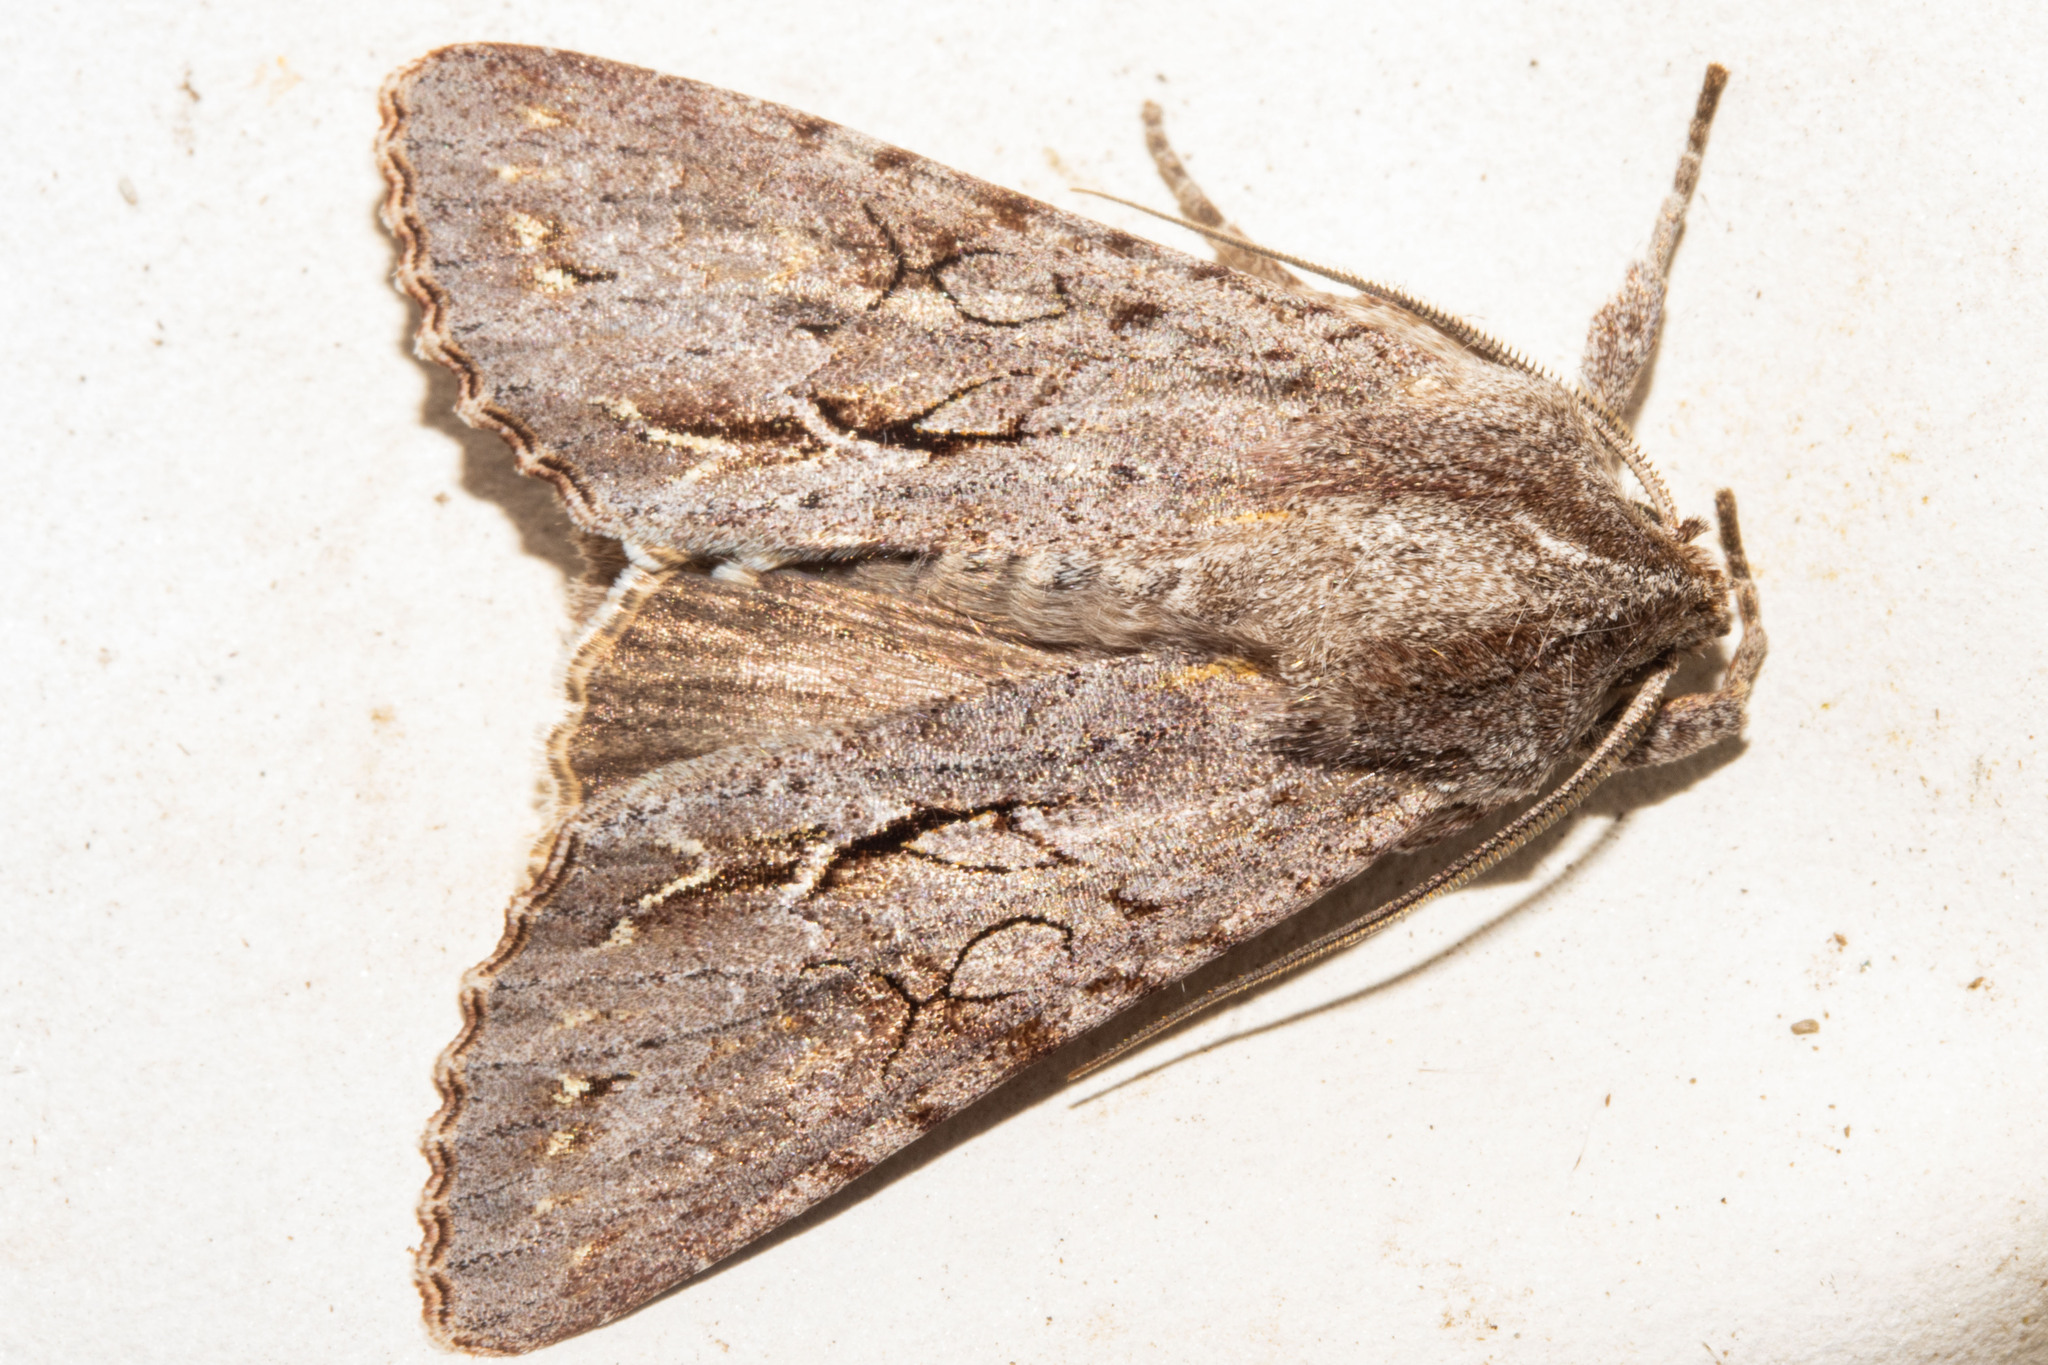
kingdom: Animalia
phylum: Arthropoda
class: Insecta
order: Lepidoptera
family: Noctuidae
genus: Ichneutica
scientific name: Ichneutica
